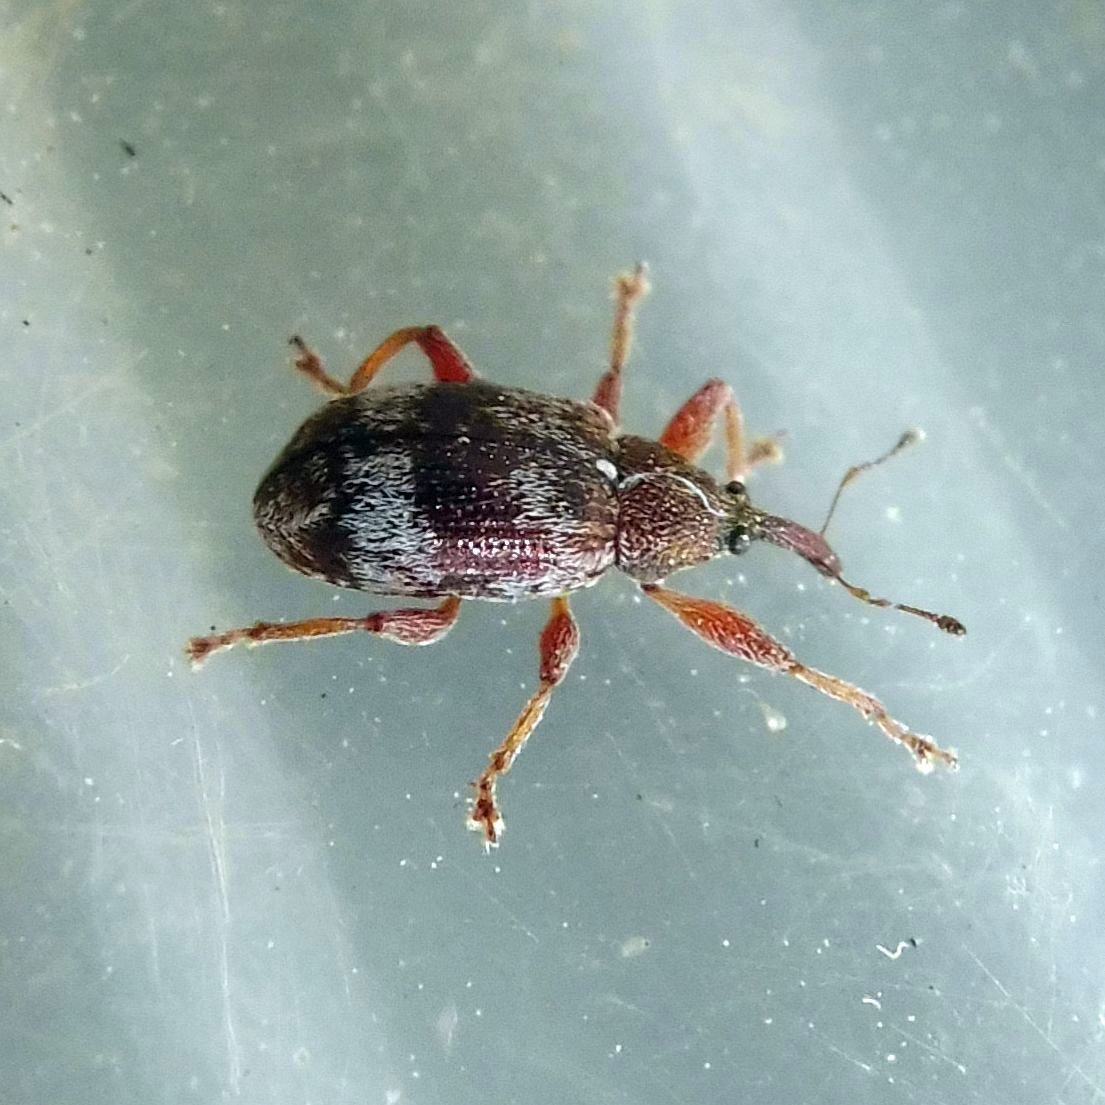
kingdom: Animalia
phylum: Arthropoda
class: Insecta
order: Coleoptera
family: Curculionidae
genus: Anthonomus
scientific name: Anthonomus pedicularius
